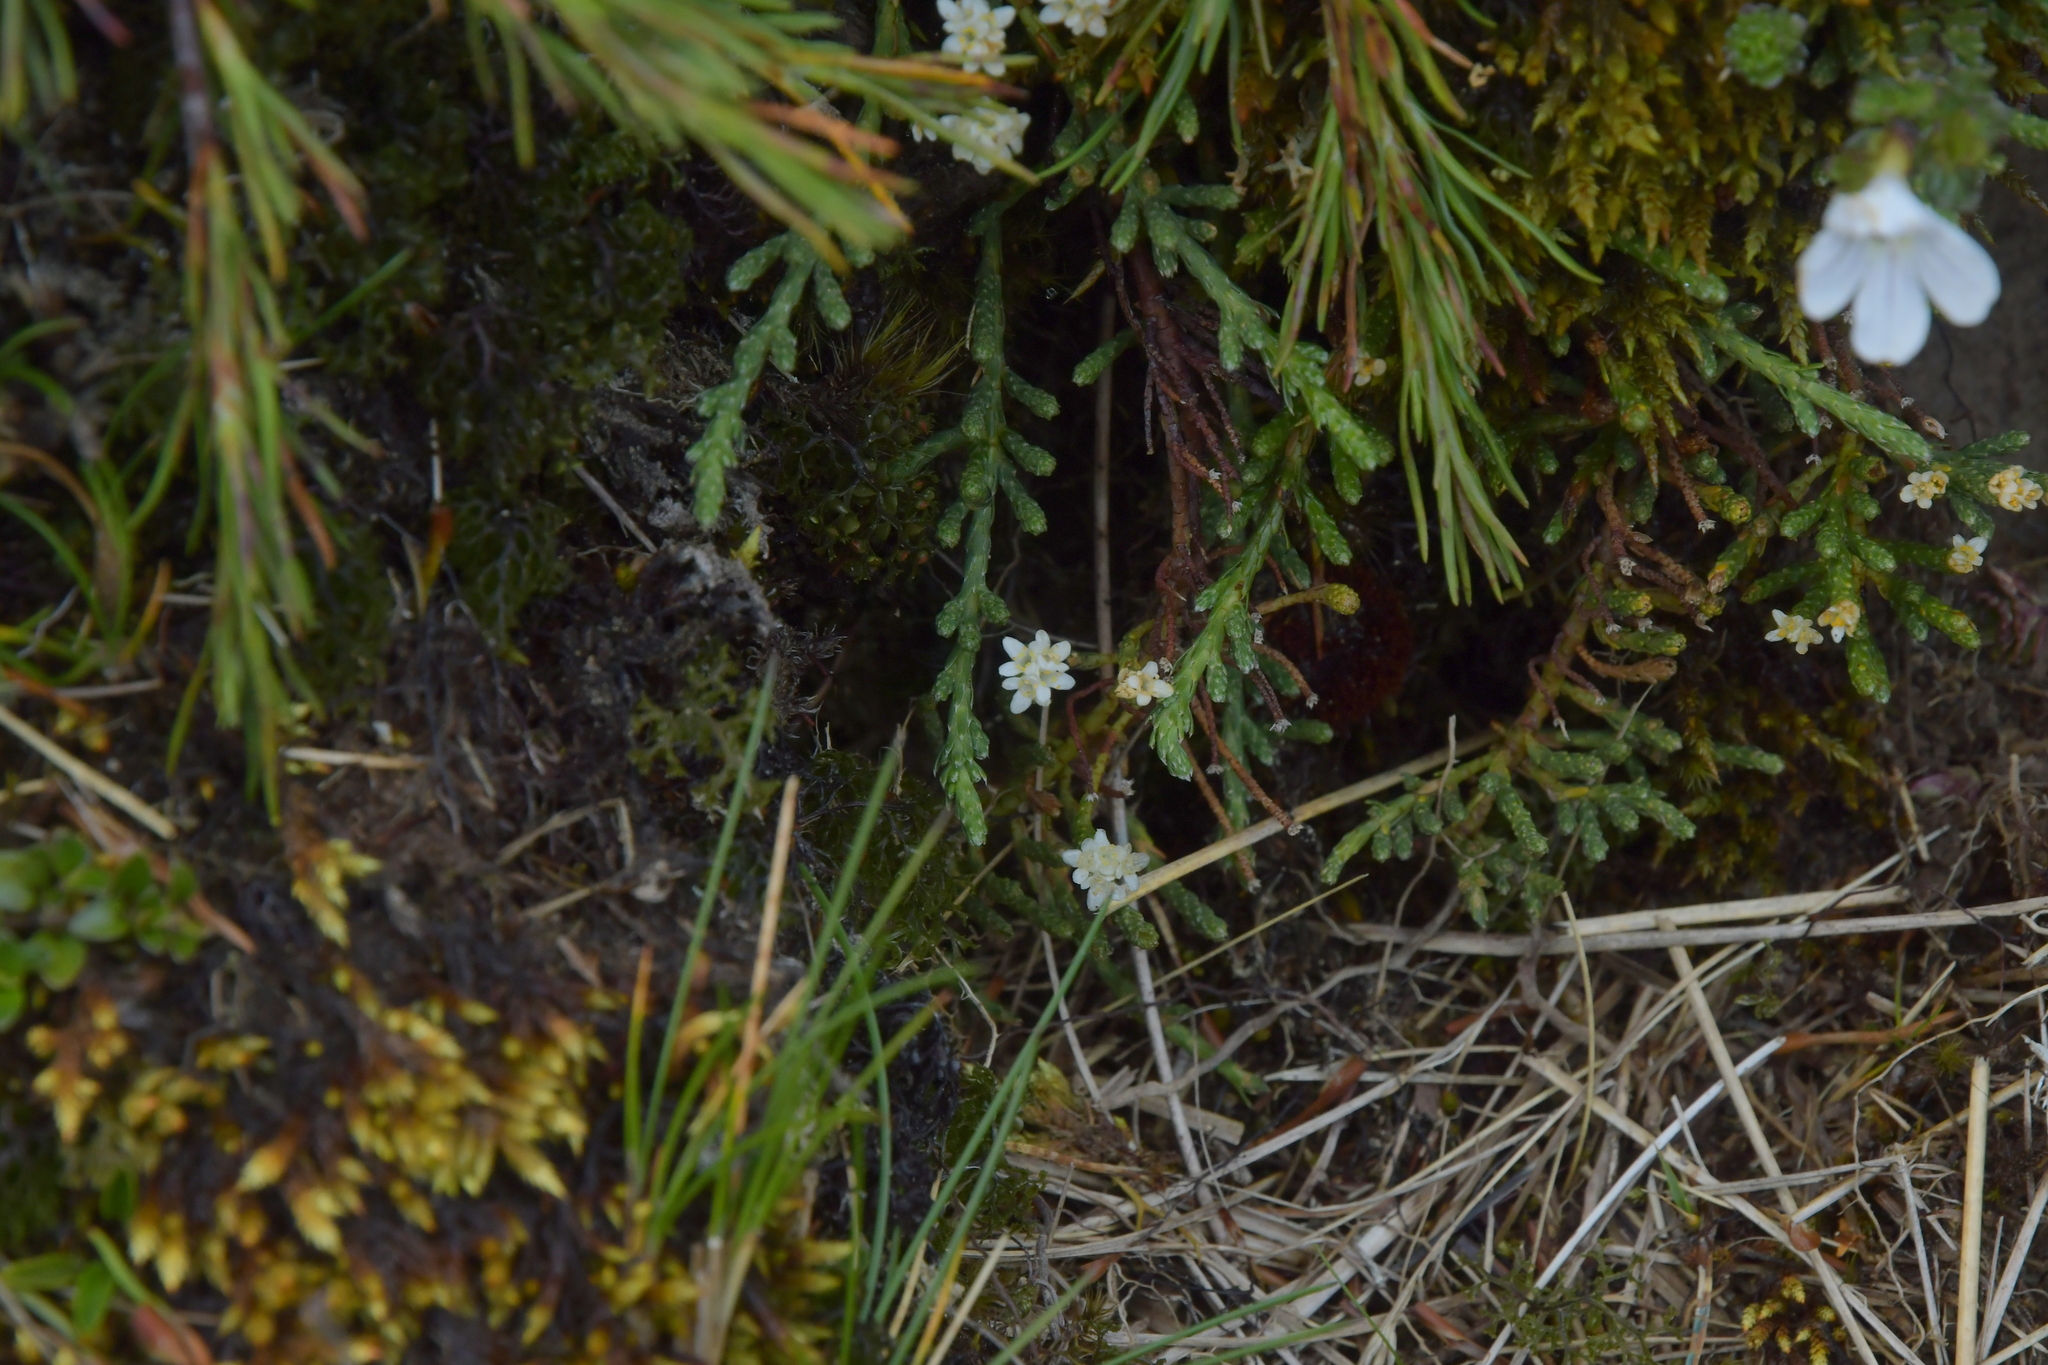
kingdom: Plantae
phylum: Tracheophyta
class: Magnoliopsida
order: Malvales
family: Thymelaeaceae
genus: Kelleria
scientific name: Kelleria dieffenbachii
